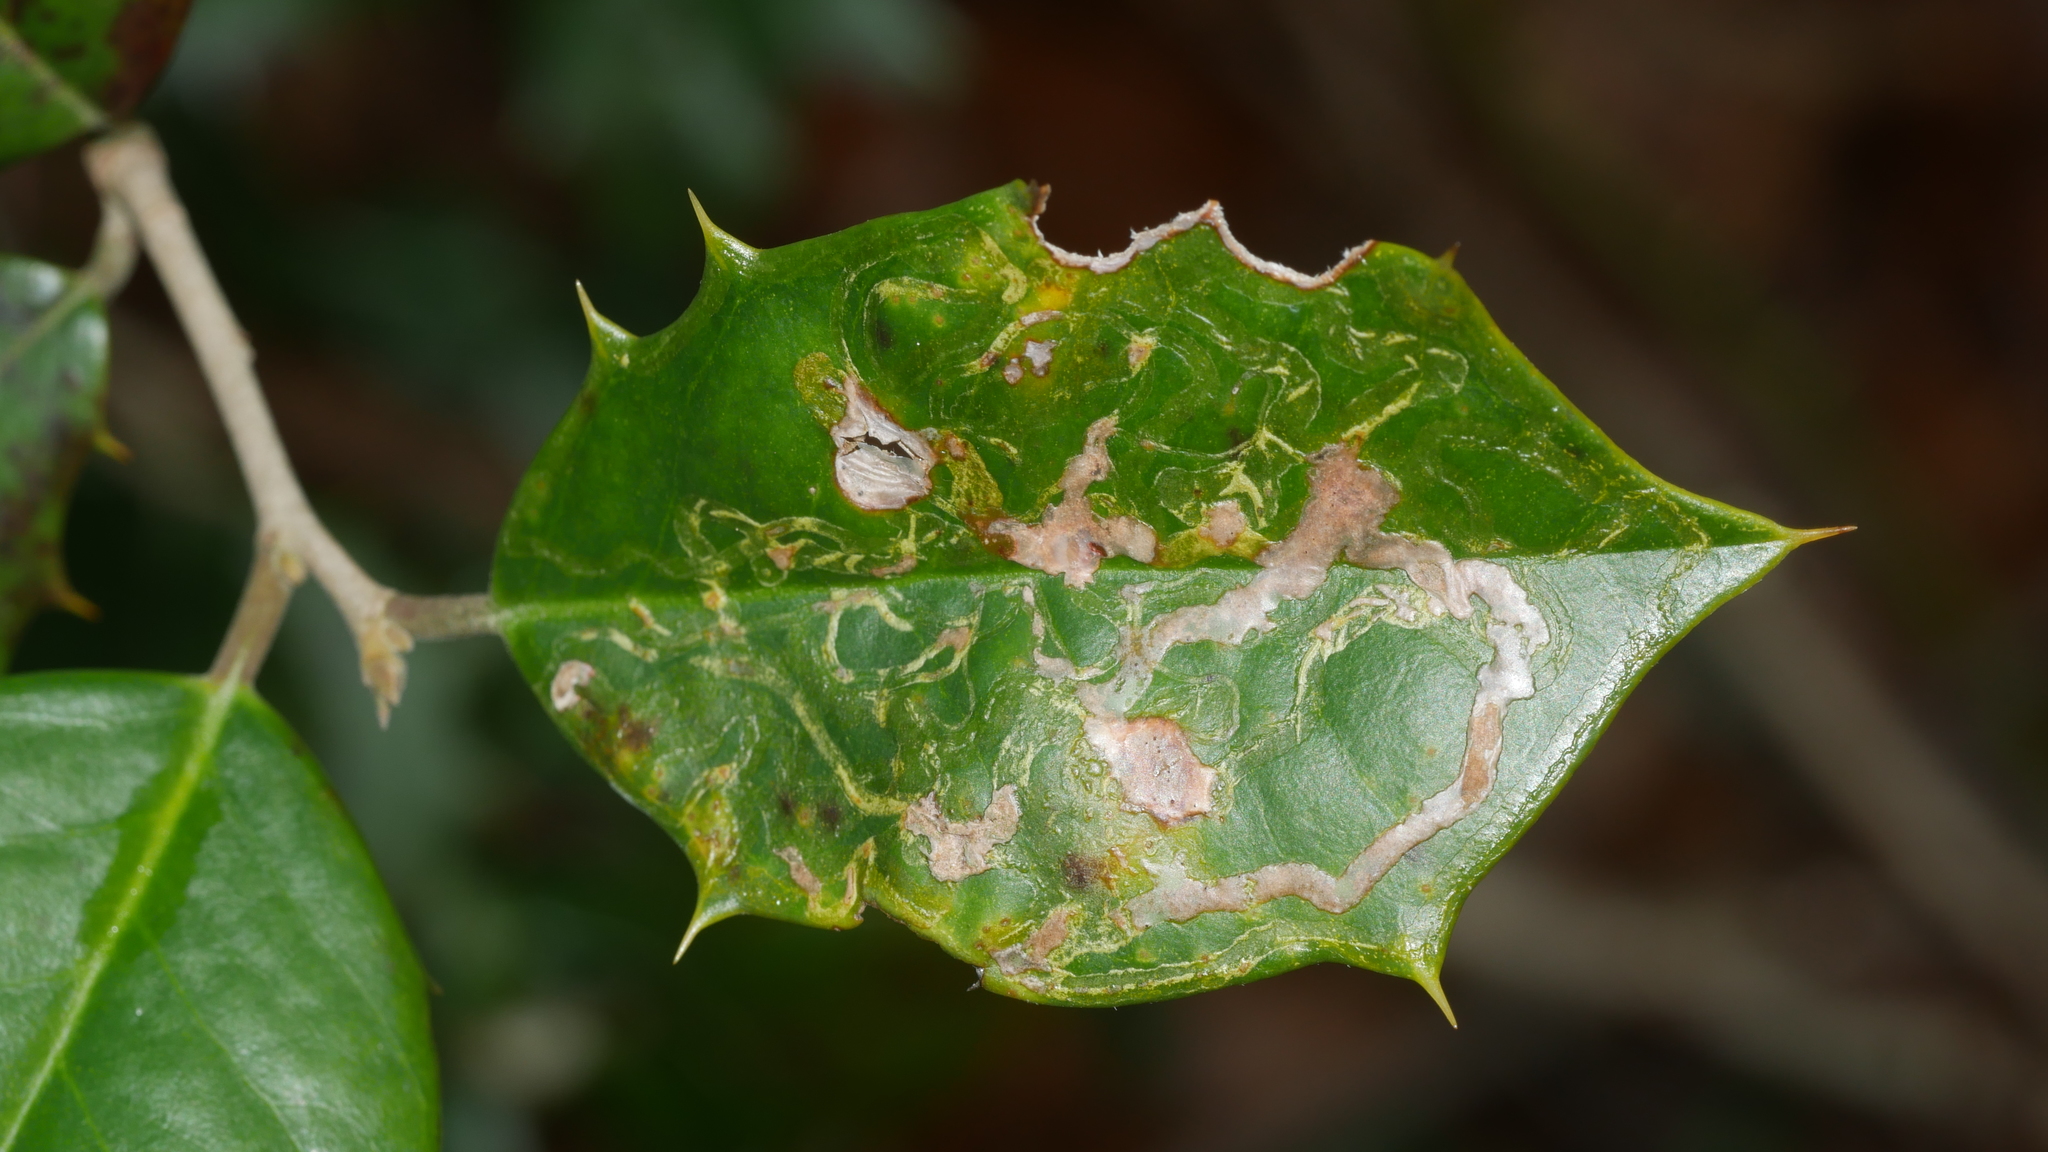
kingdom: Animalia
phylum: Arthropoda
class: Insecta
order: Diptera
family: Agromyzidae
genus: Phytomyza
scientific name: Phytomyza opacae
